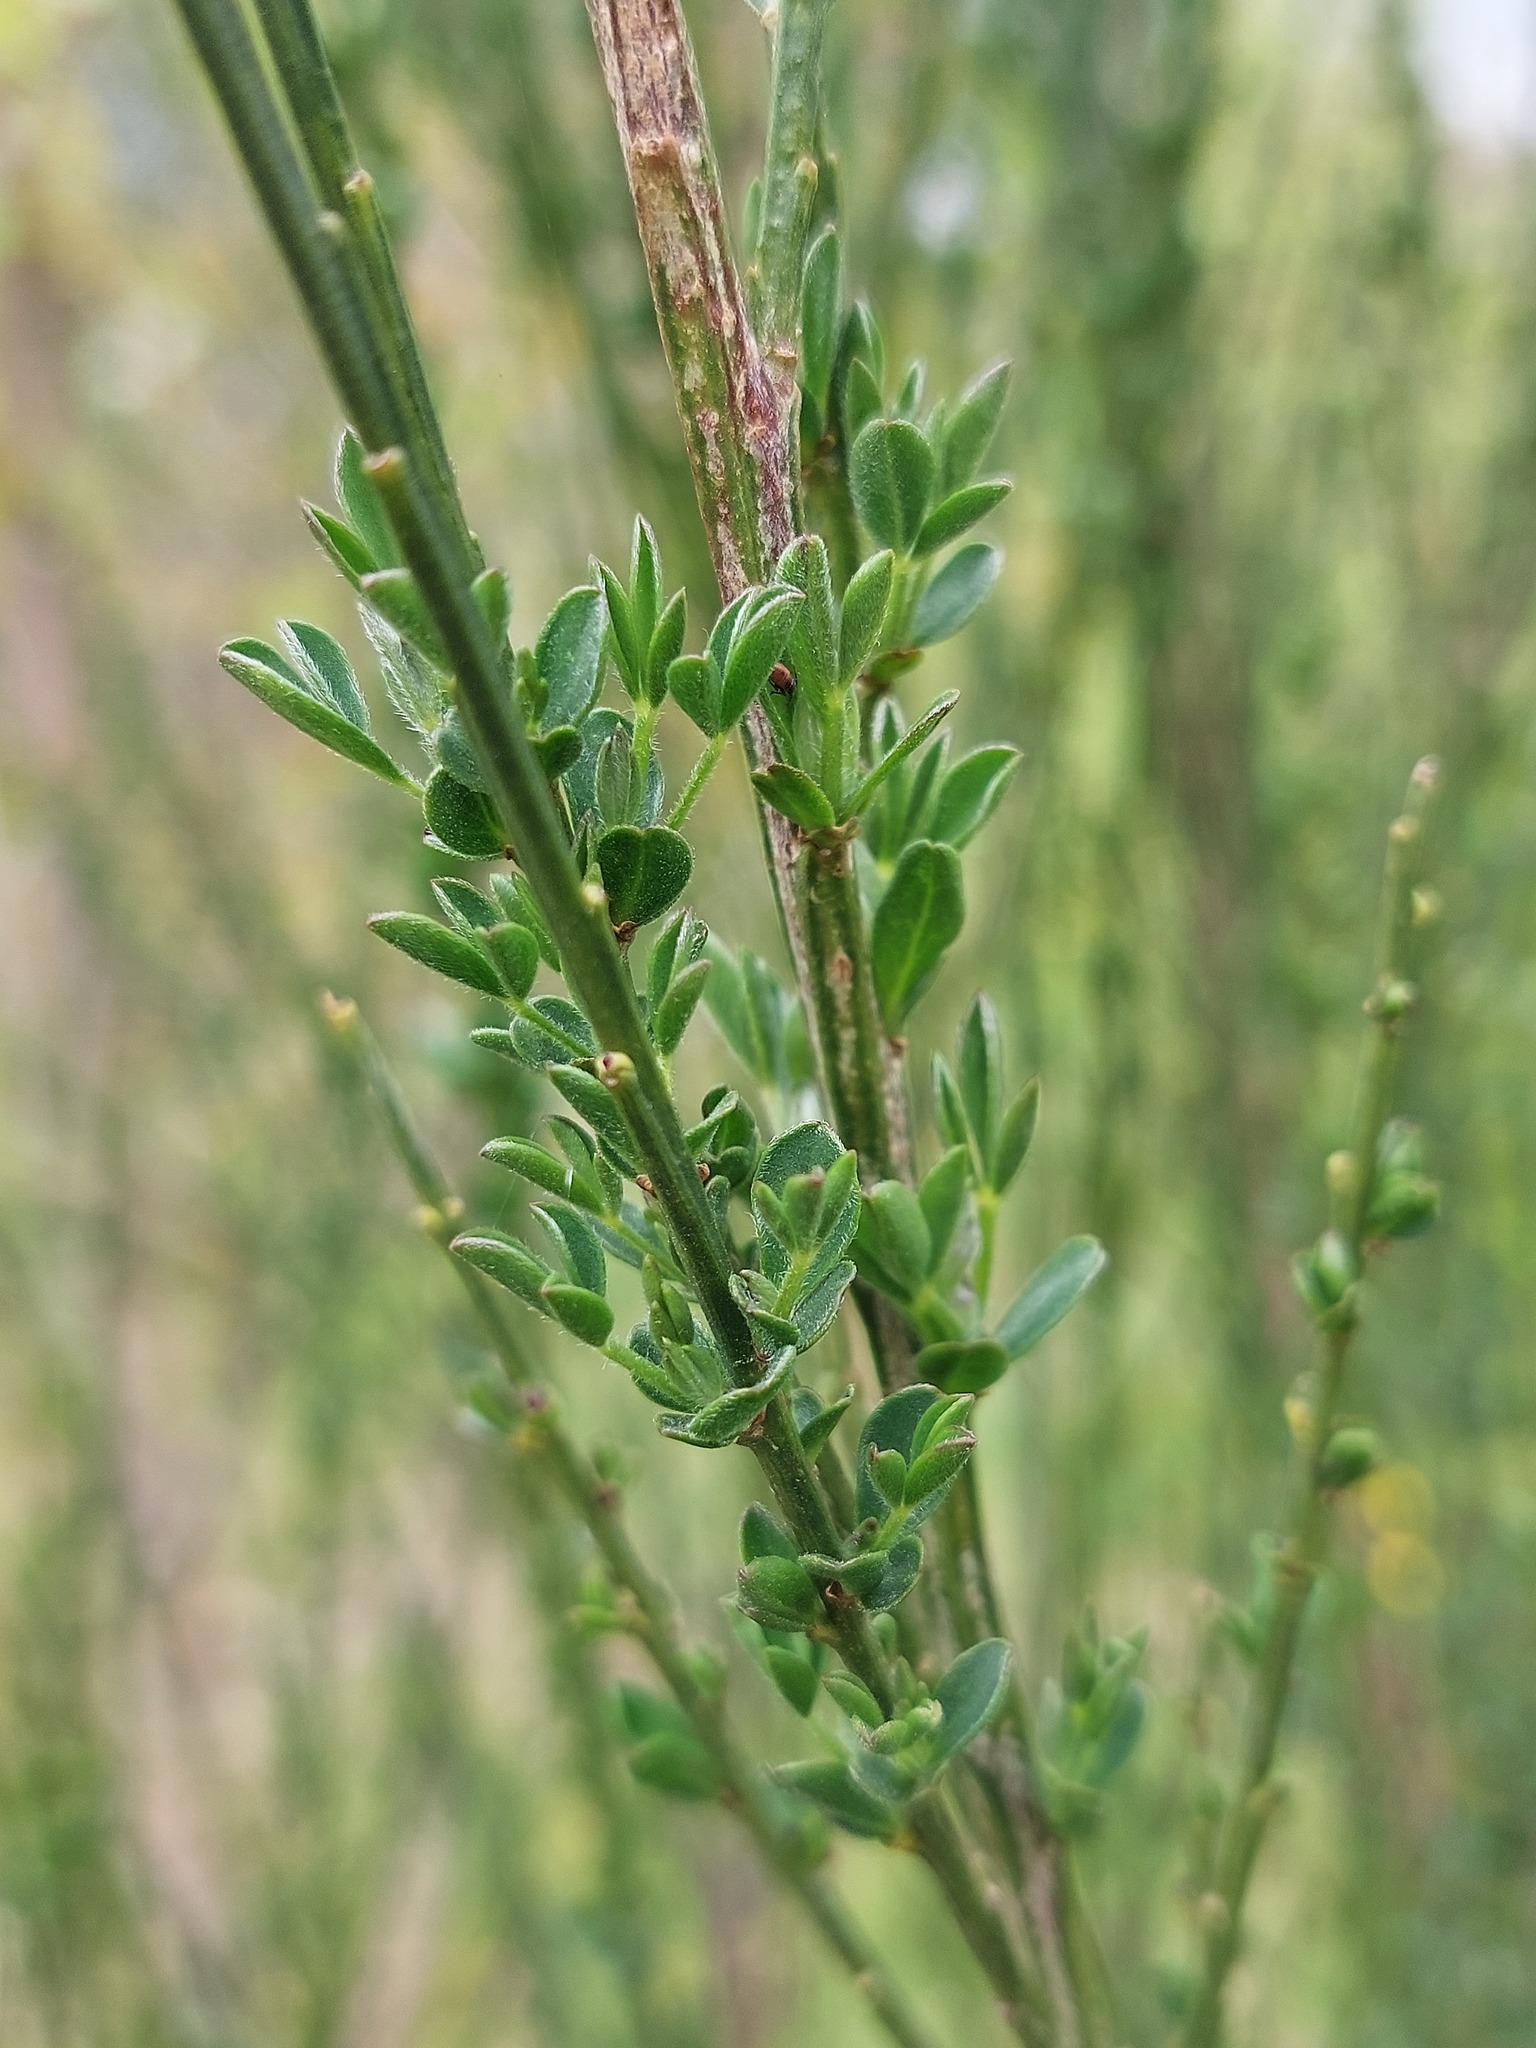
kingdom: Plantae
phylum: Tracheophyta
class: Magnoliopsida
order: Fabales
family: Fabaceae
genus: Cytisus
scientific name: Cytisus scoparius
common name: Scotch broom
